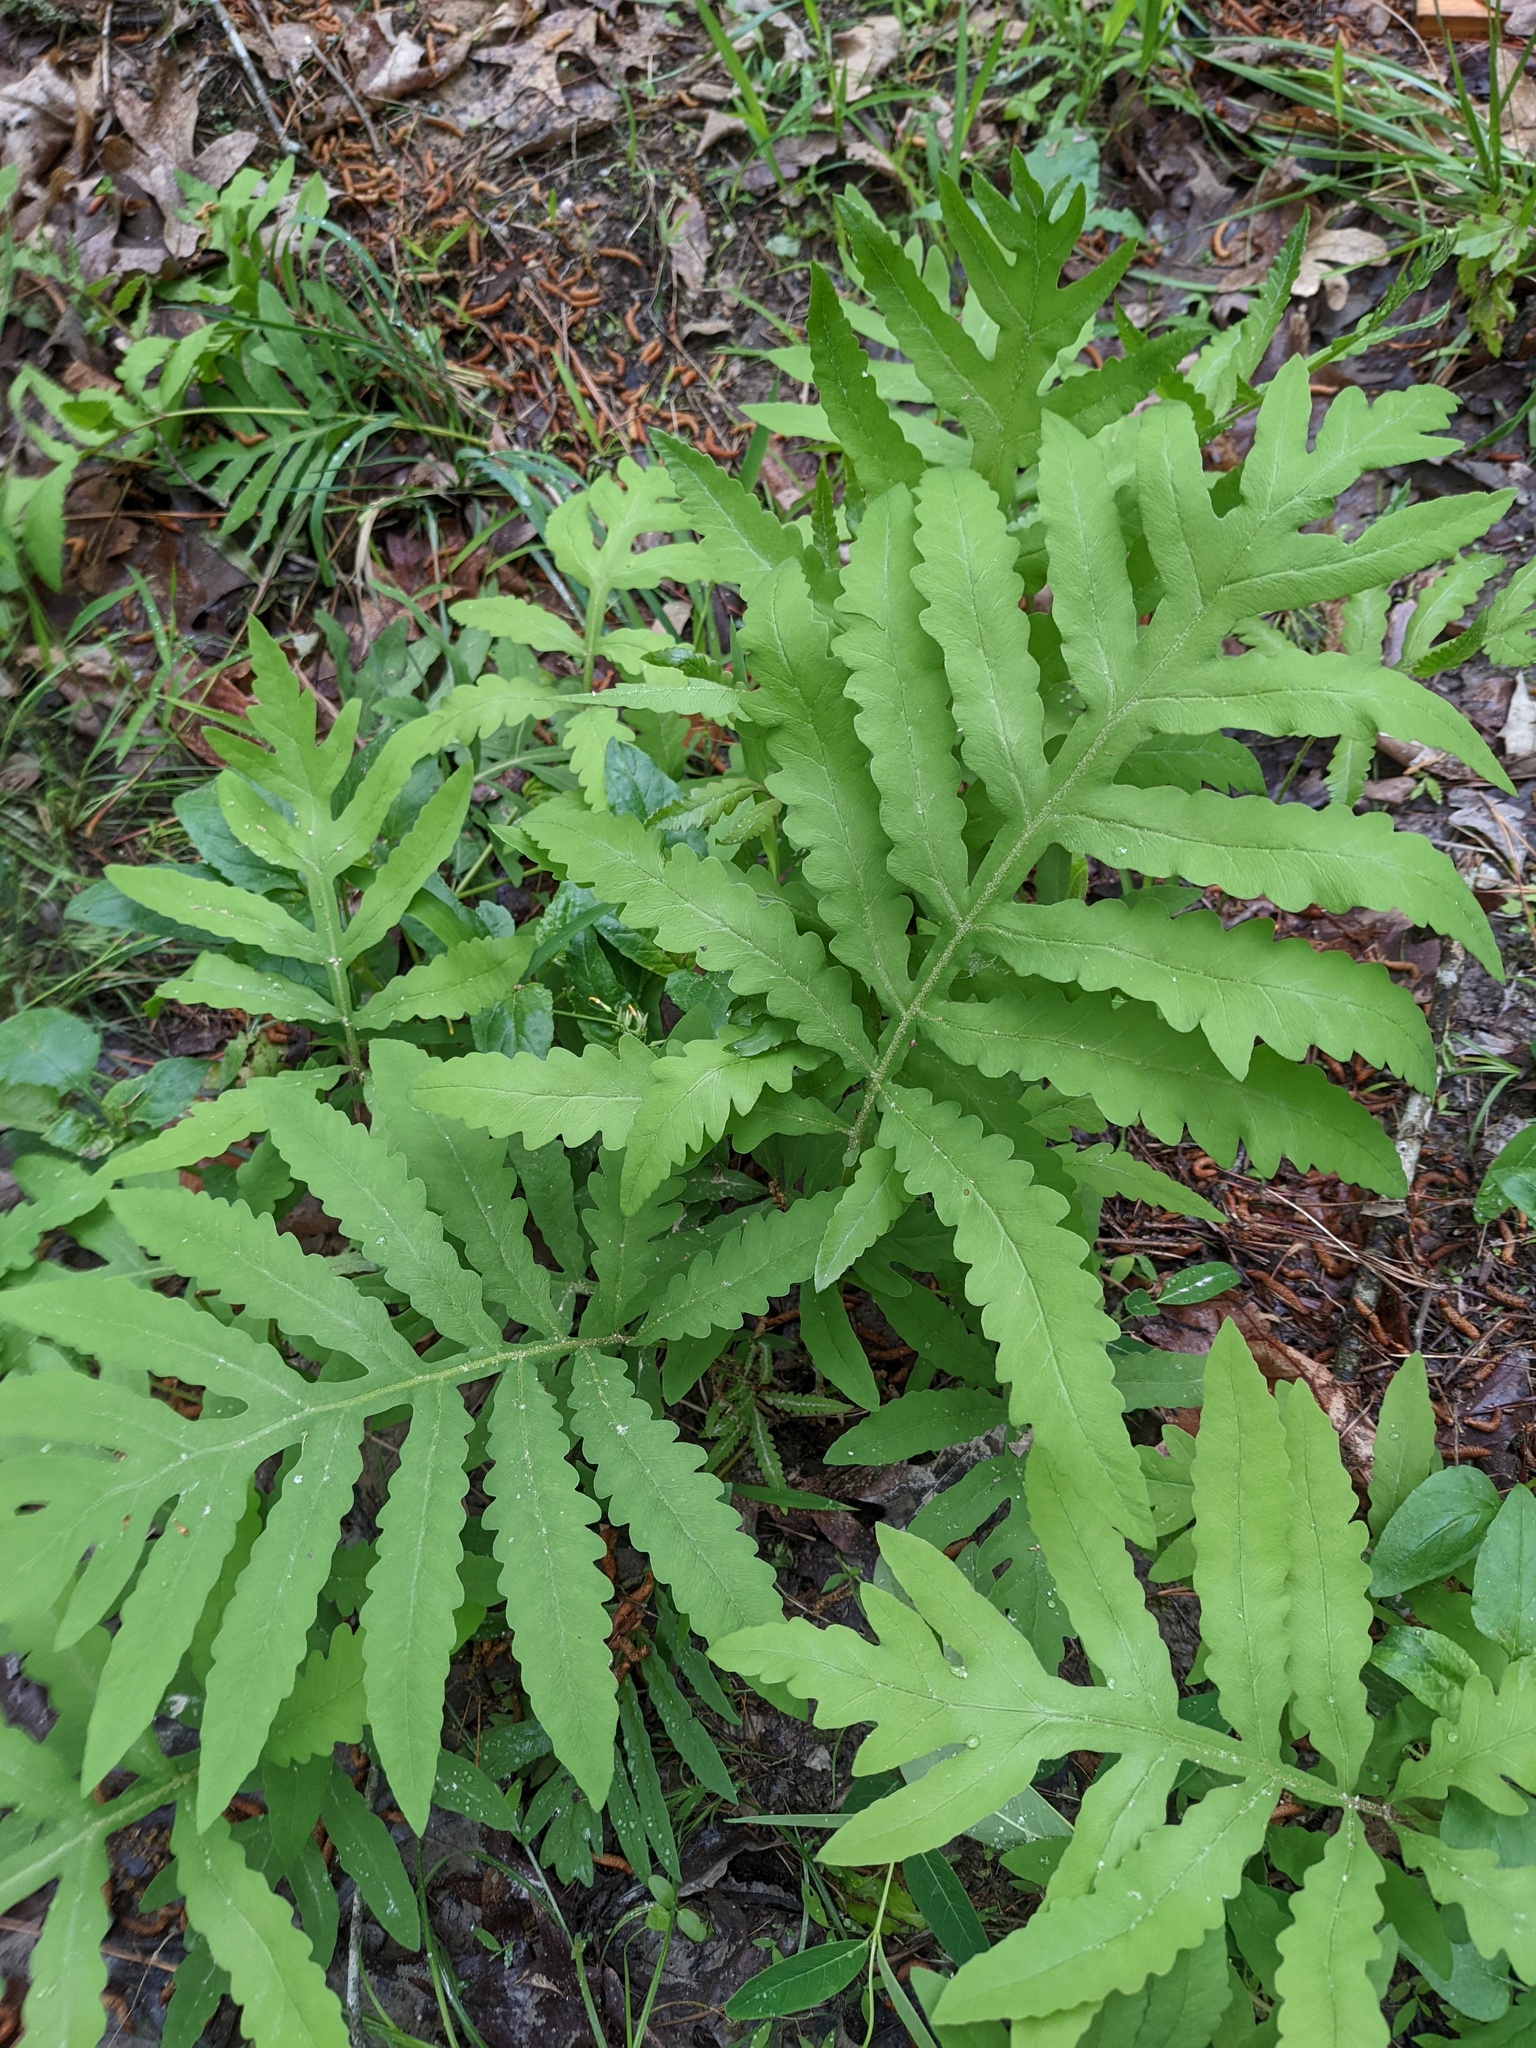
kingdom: Plantae
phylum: Tracheophyta
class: Polypodiopsida
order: Polypodiales
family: Onocleaceae
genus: Onoclea
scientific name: Onoclea sensibilis
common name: Sensitive fern
